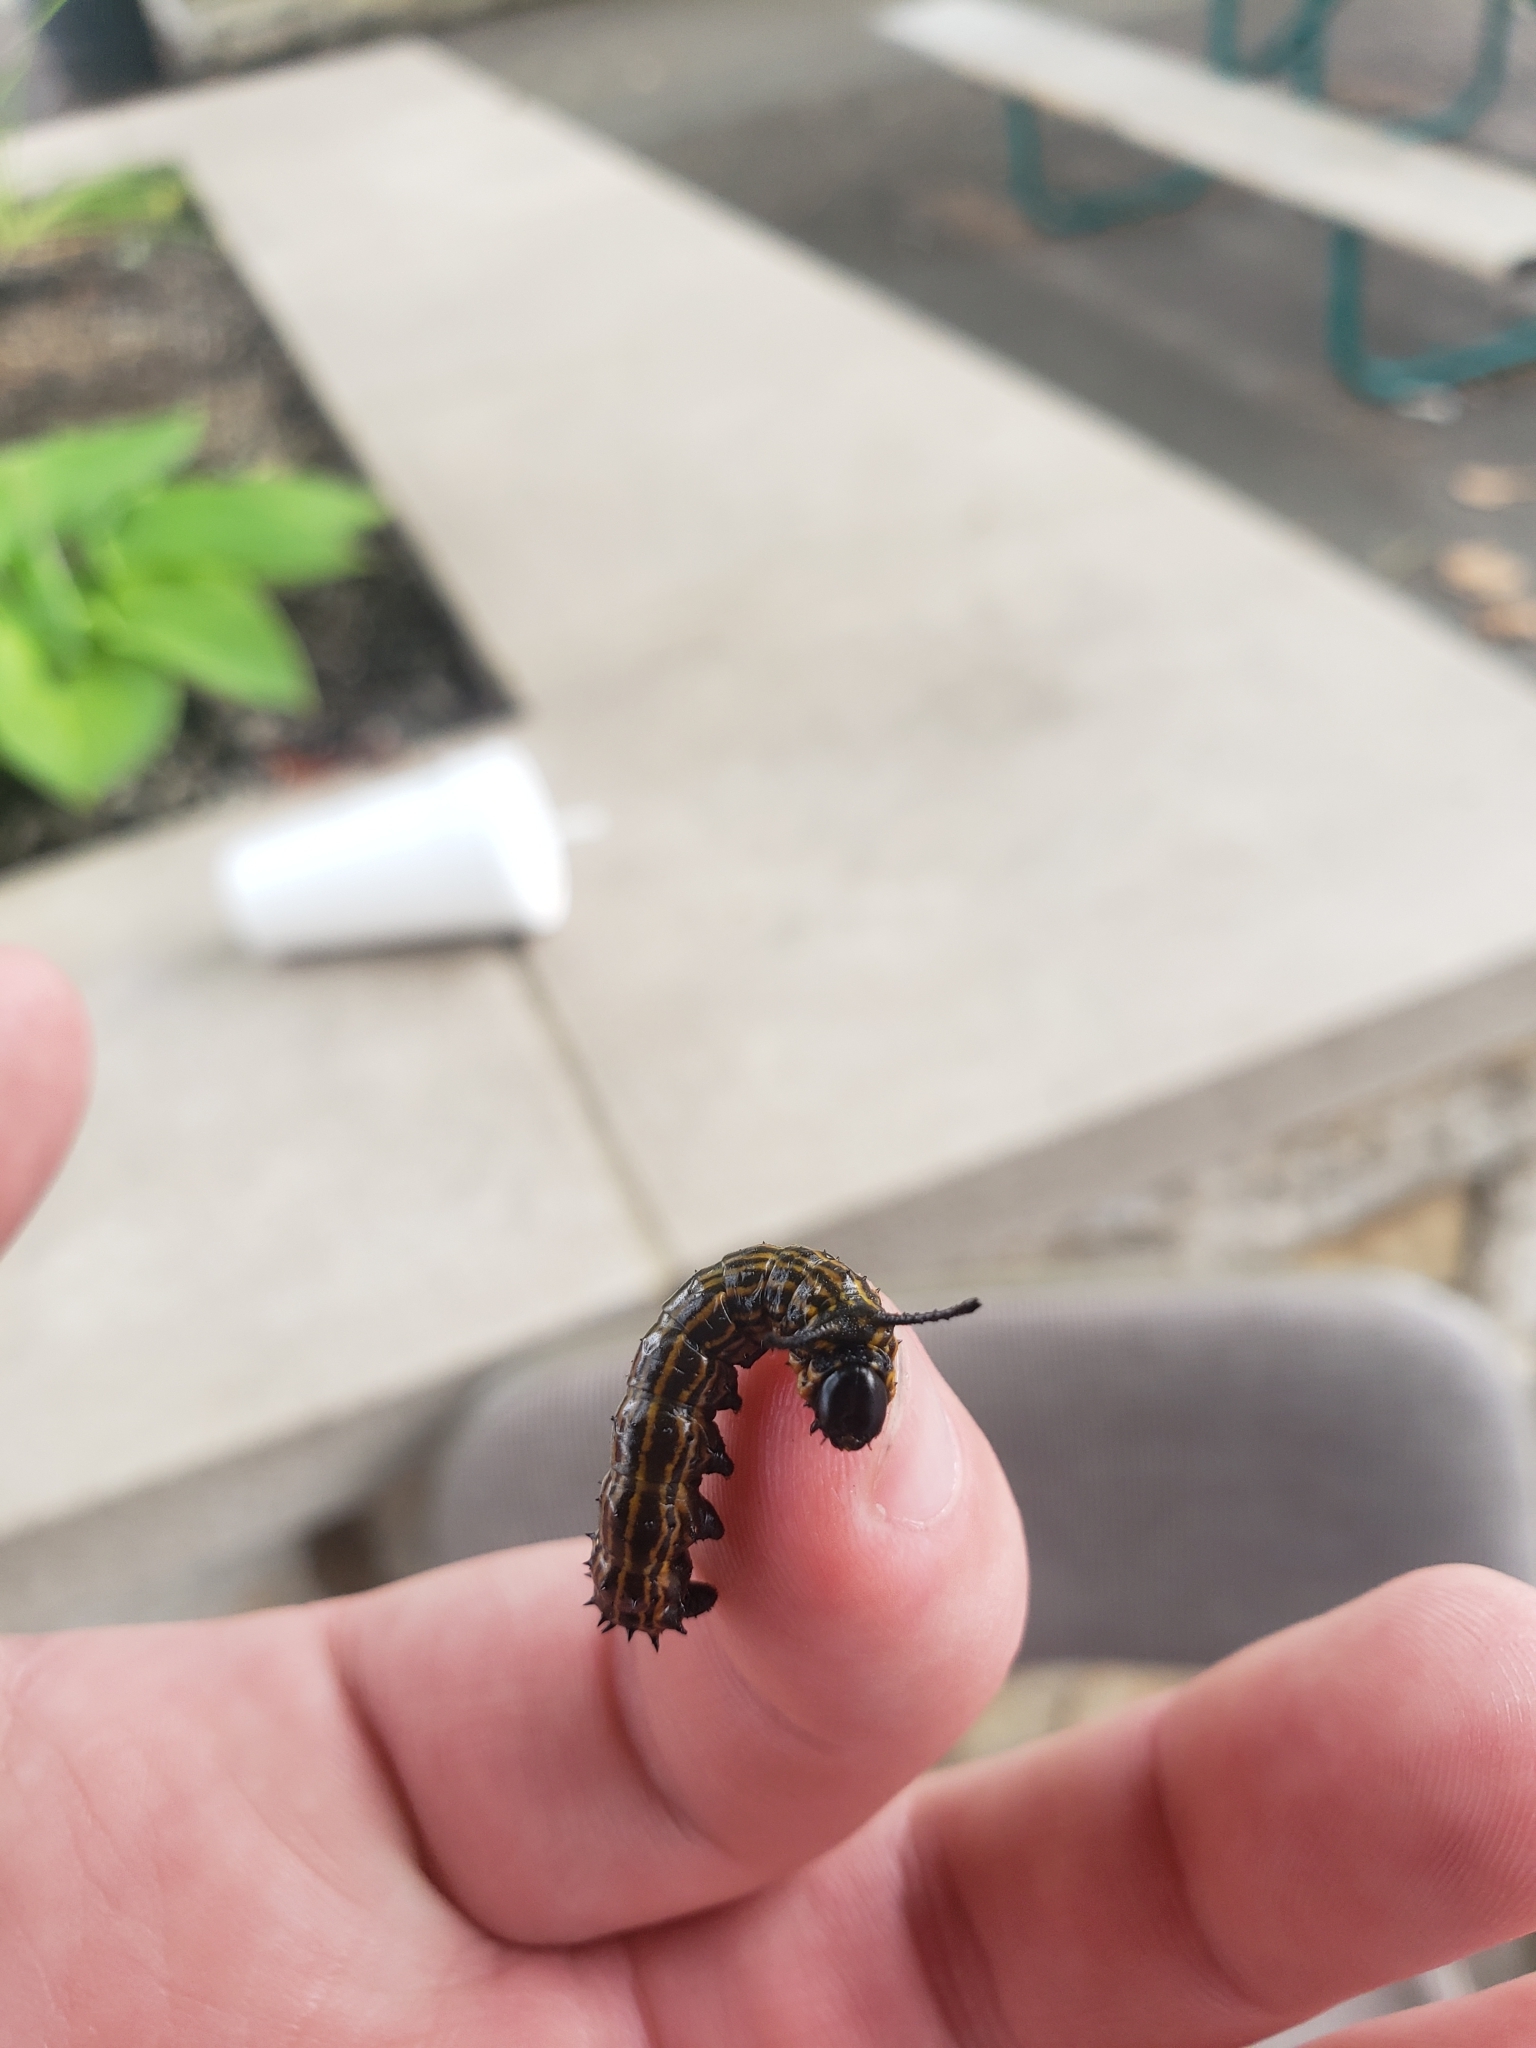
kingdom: Animalia
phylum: Arthropoda
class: Insecta
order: Lepidoptera
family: Saturniidae
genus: Anisota
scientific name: Anisota senatoria
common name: Orange-striped oakworm moth
